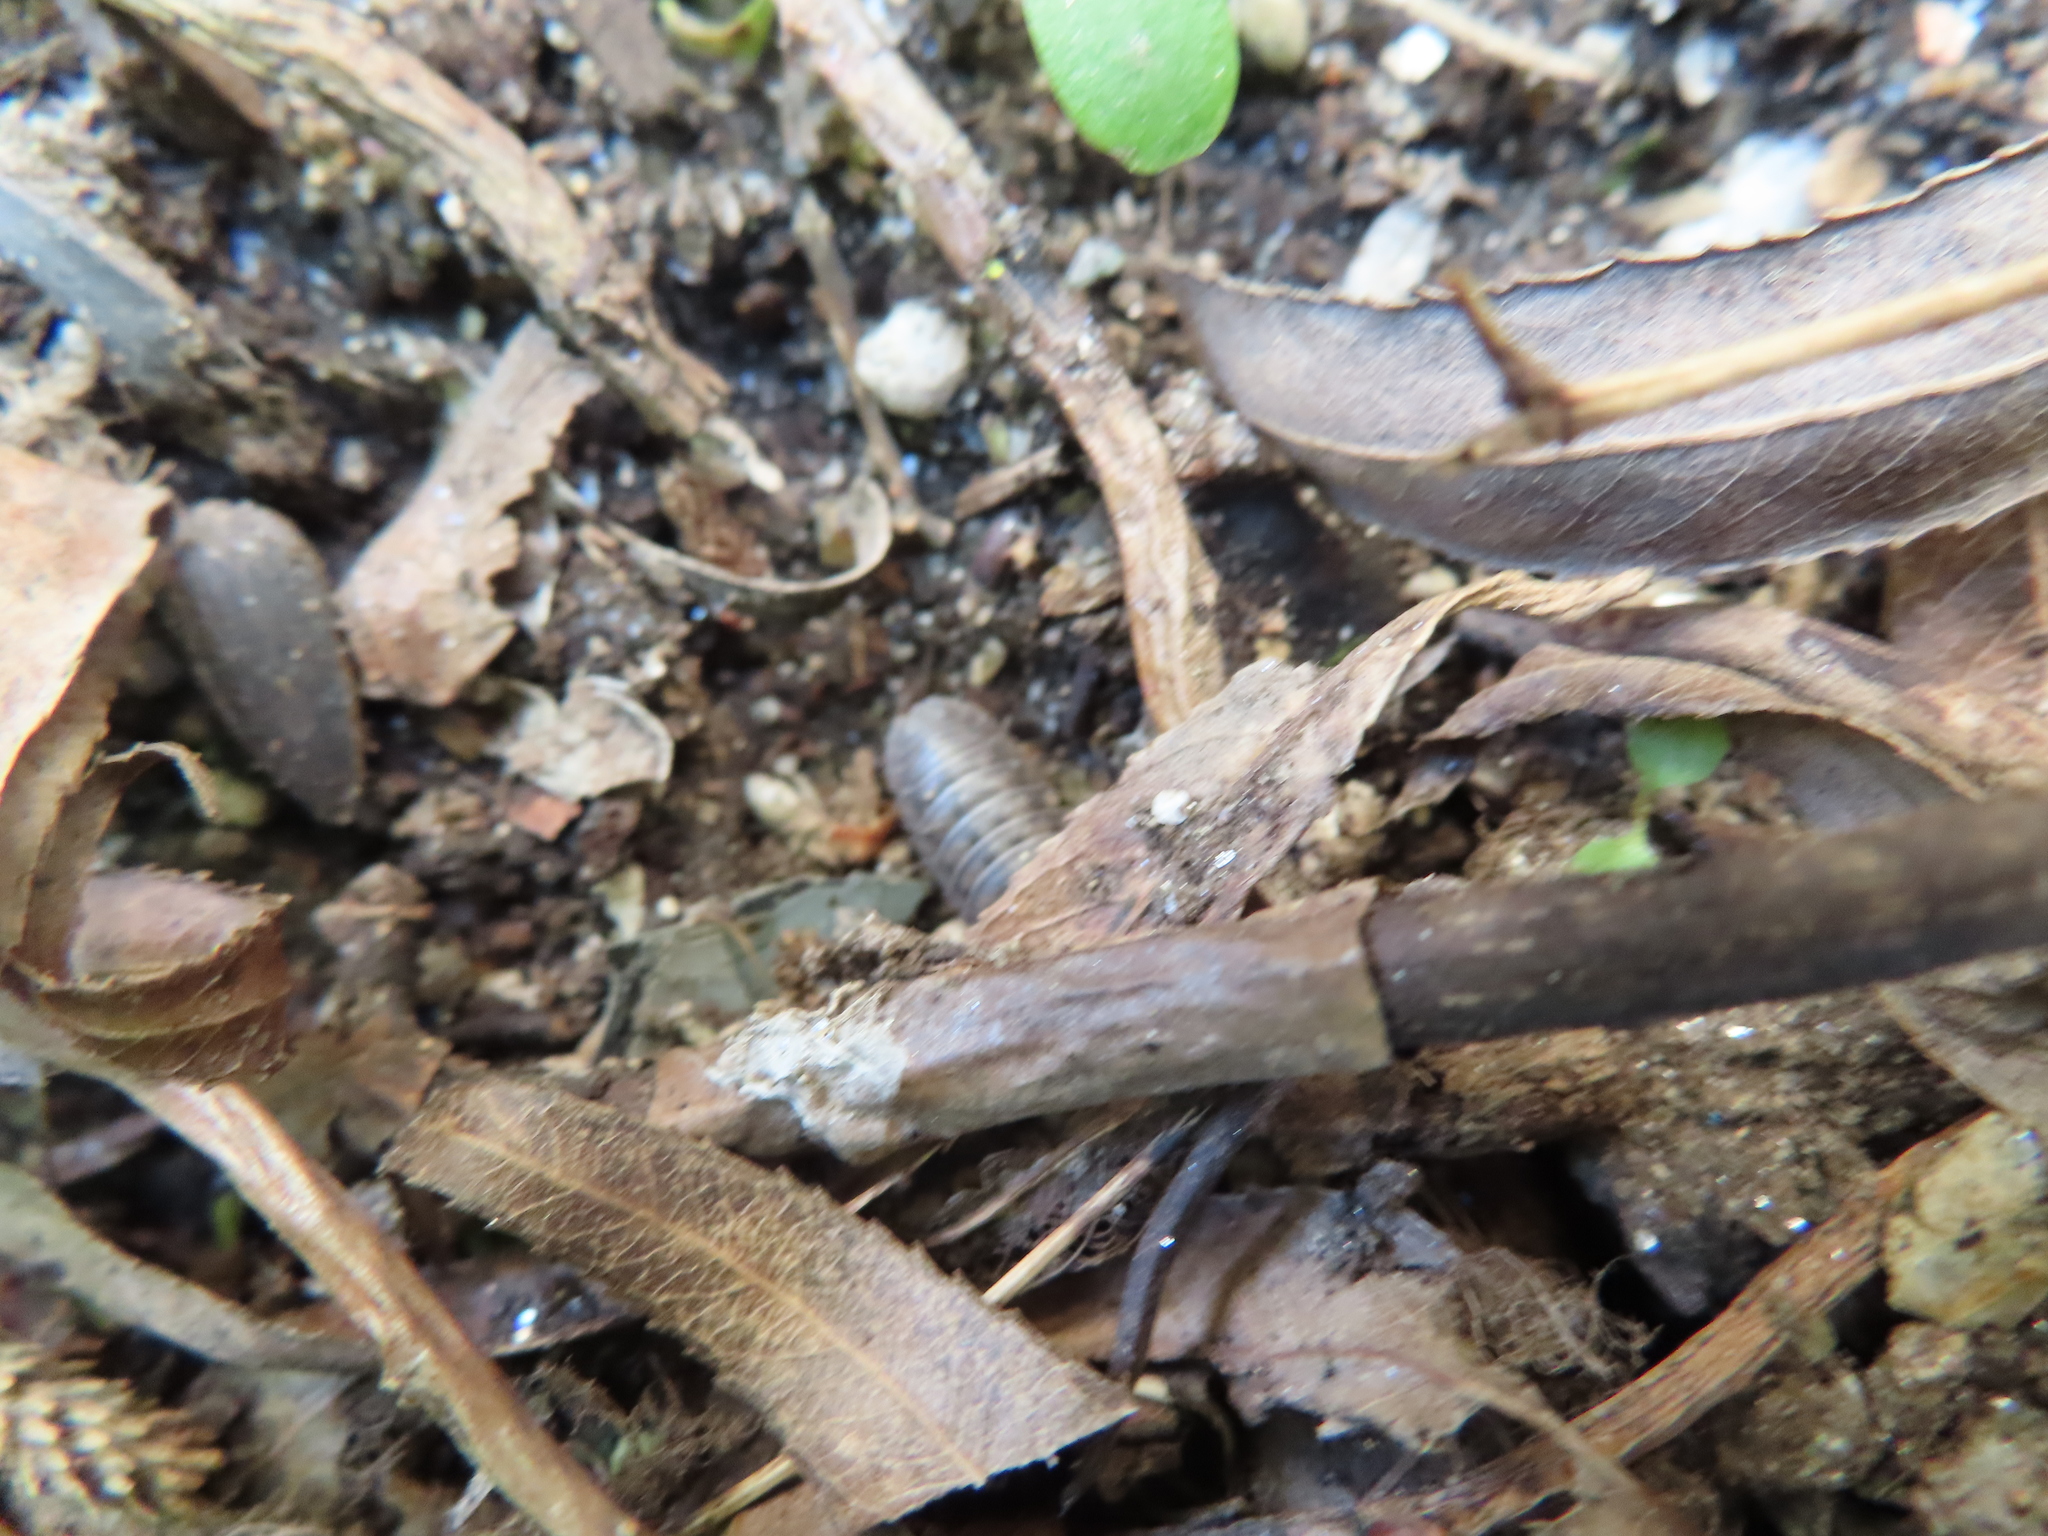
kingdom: Animalia
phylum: Arthropoda
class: Malacostraca
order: Isopoda
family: Armadillidiidae
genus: Armadillidium
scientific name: Armadillidium nasatum
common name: Isopod
